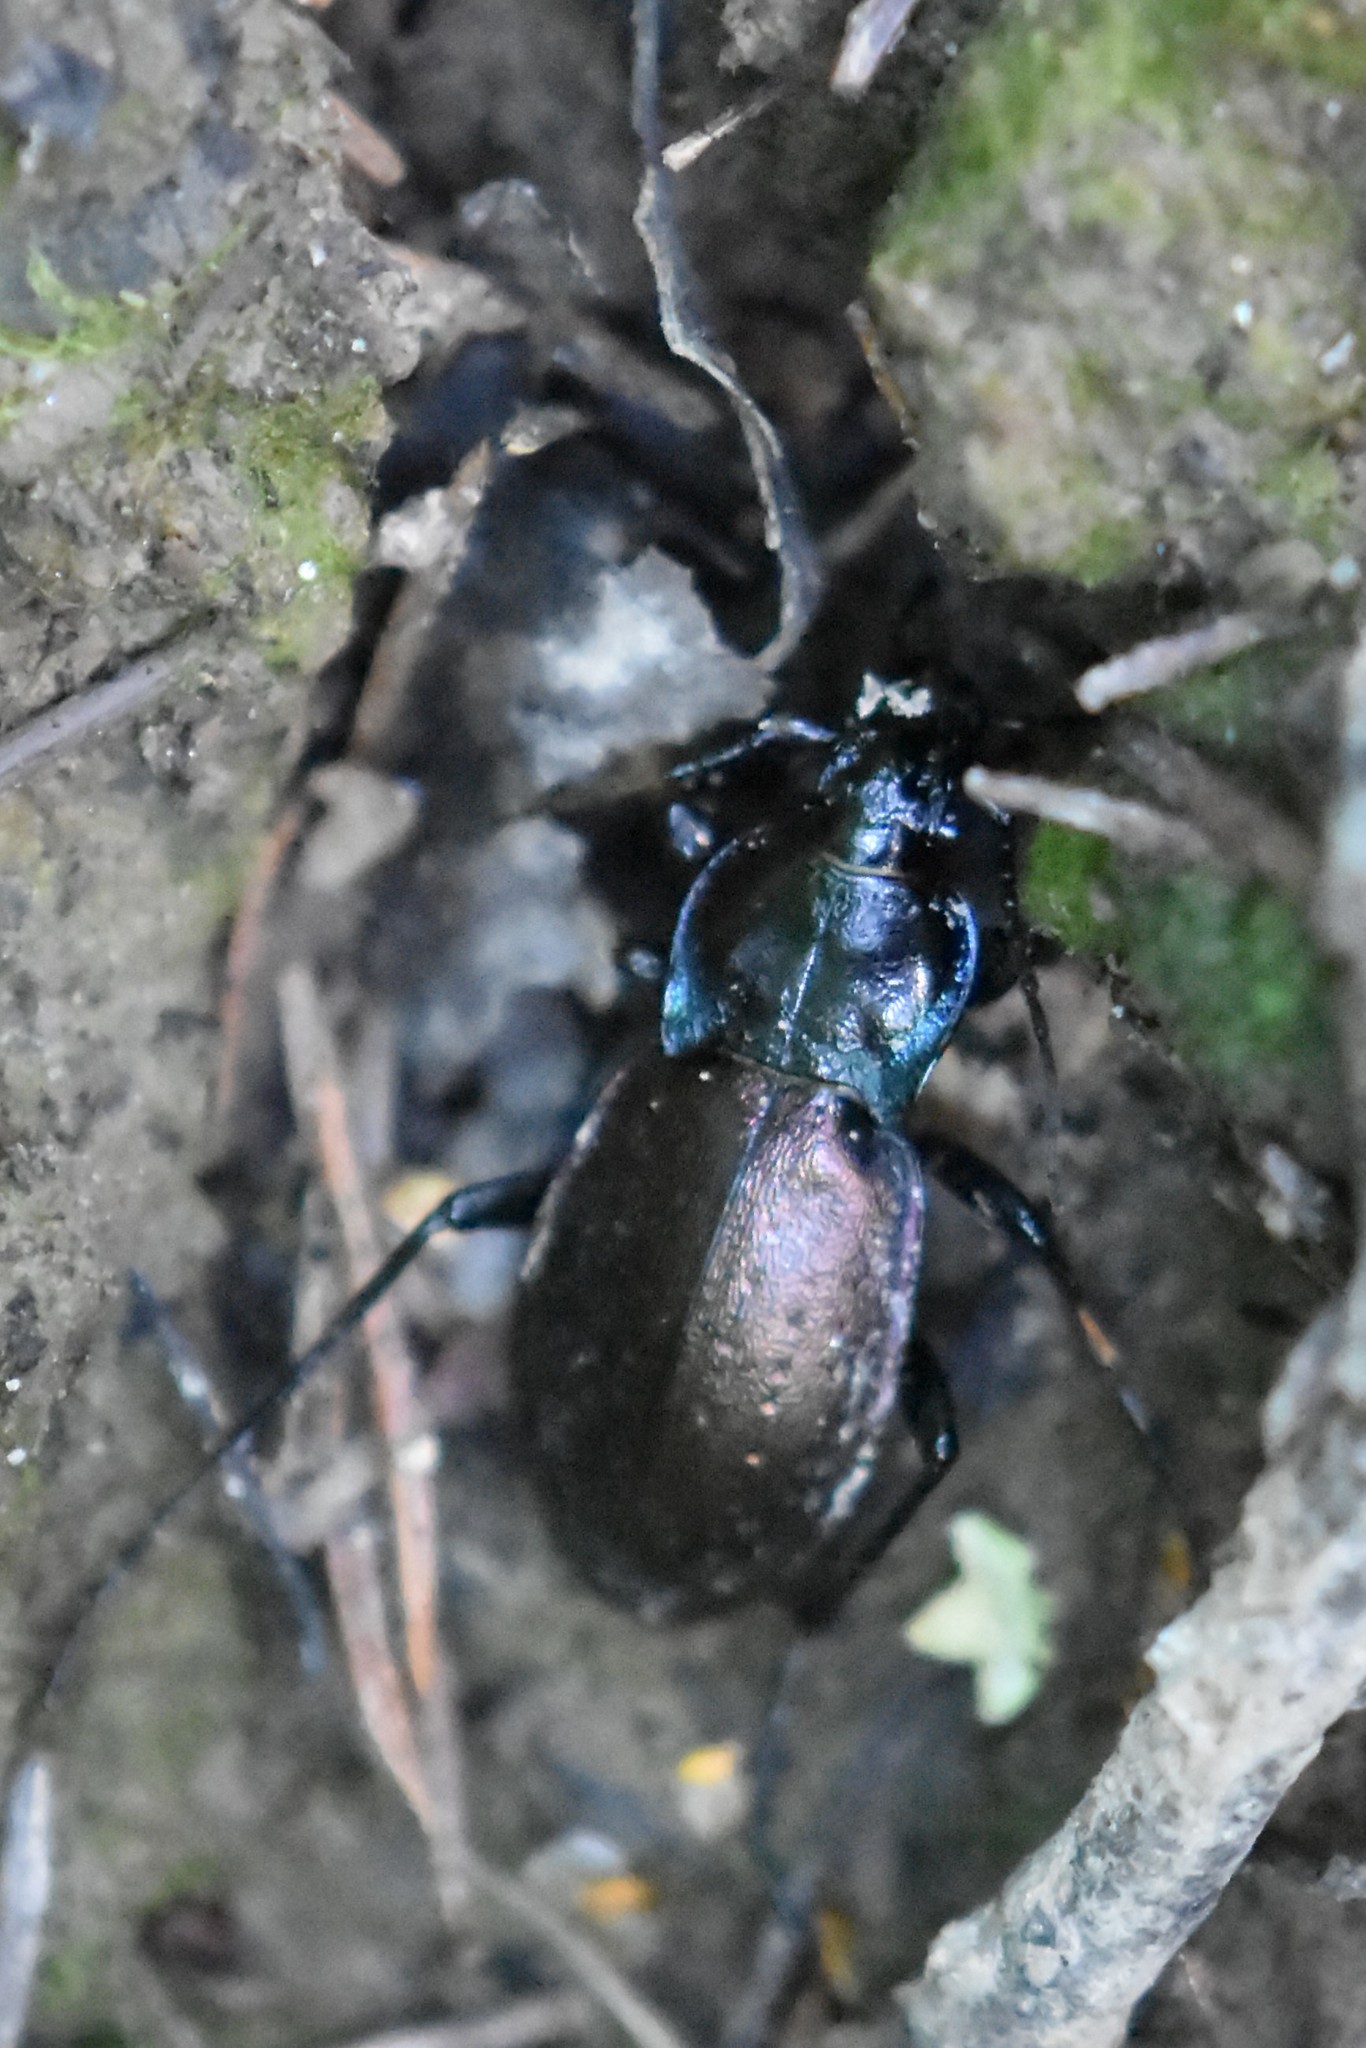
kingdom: Animalia
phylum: Arthropoda
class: Insecta
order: Coleoptera
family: Carabidae
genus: Carabus
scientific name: Carabus nemoralis
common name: European ground beetle
